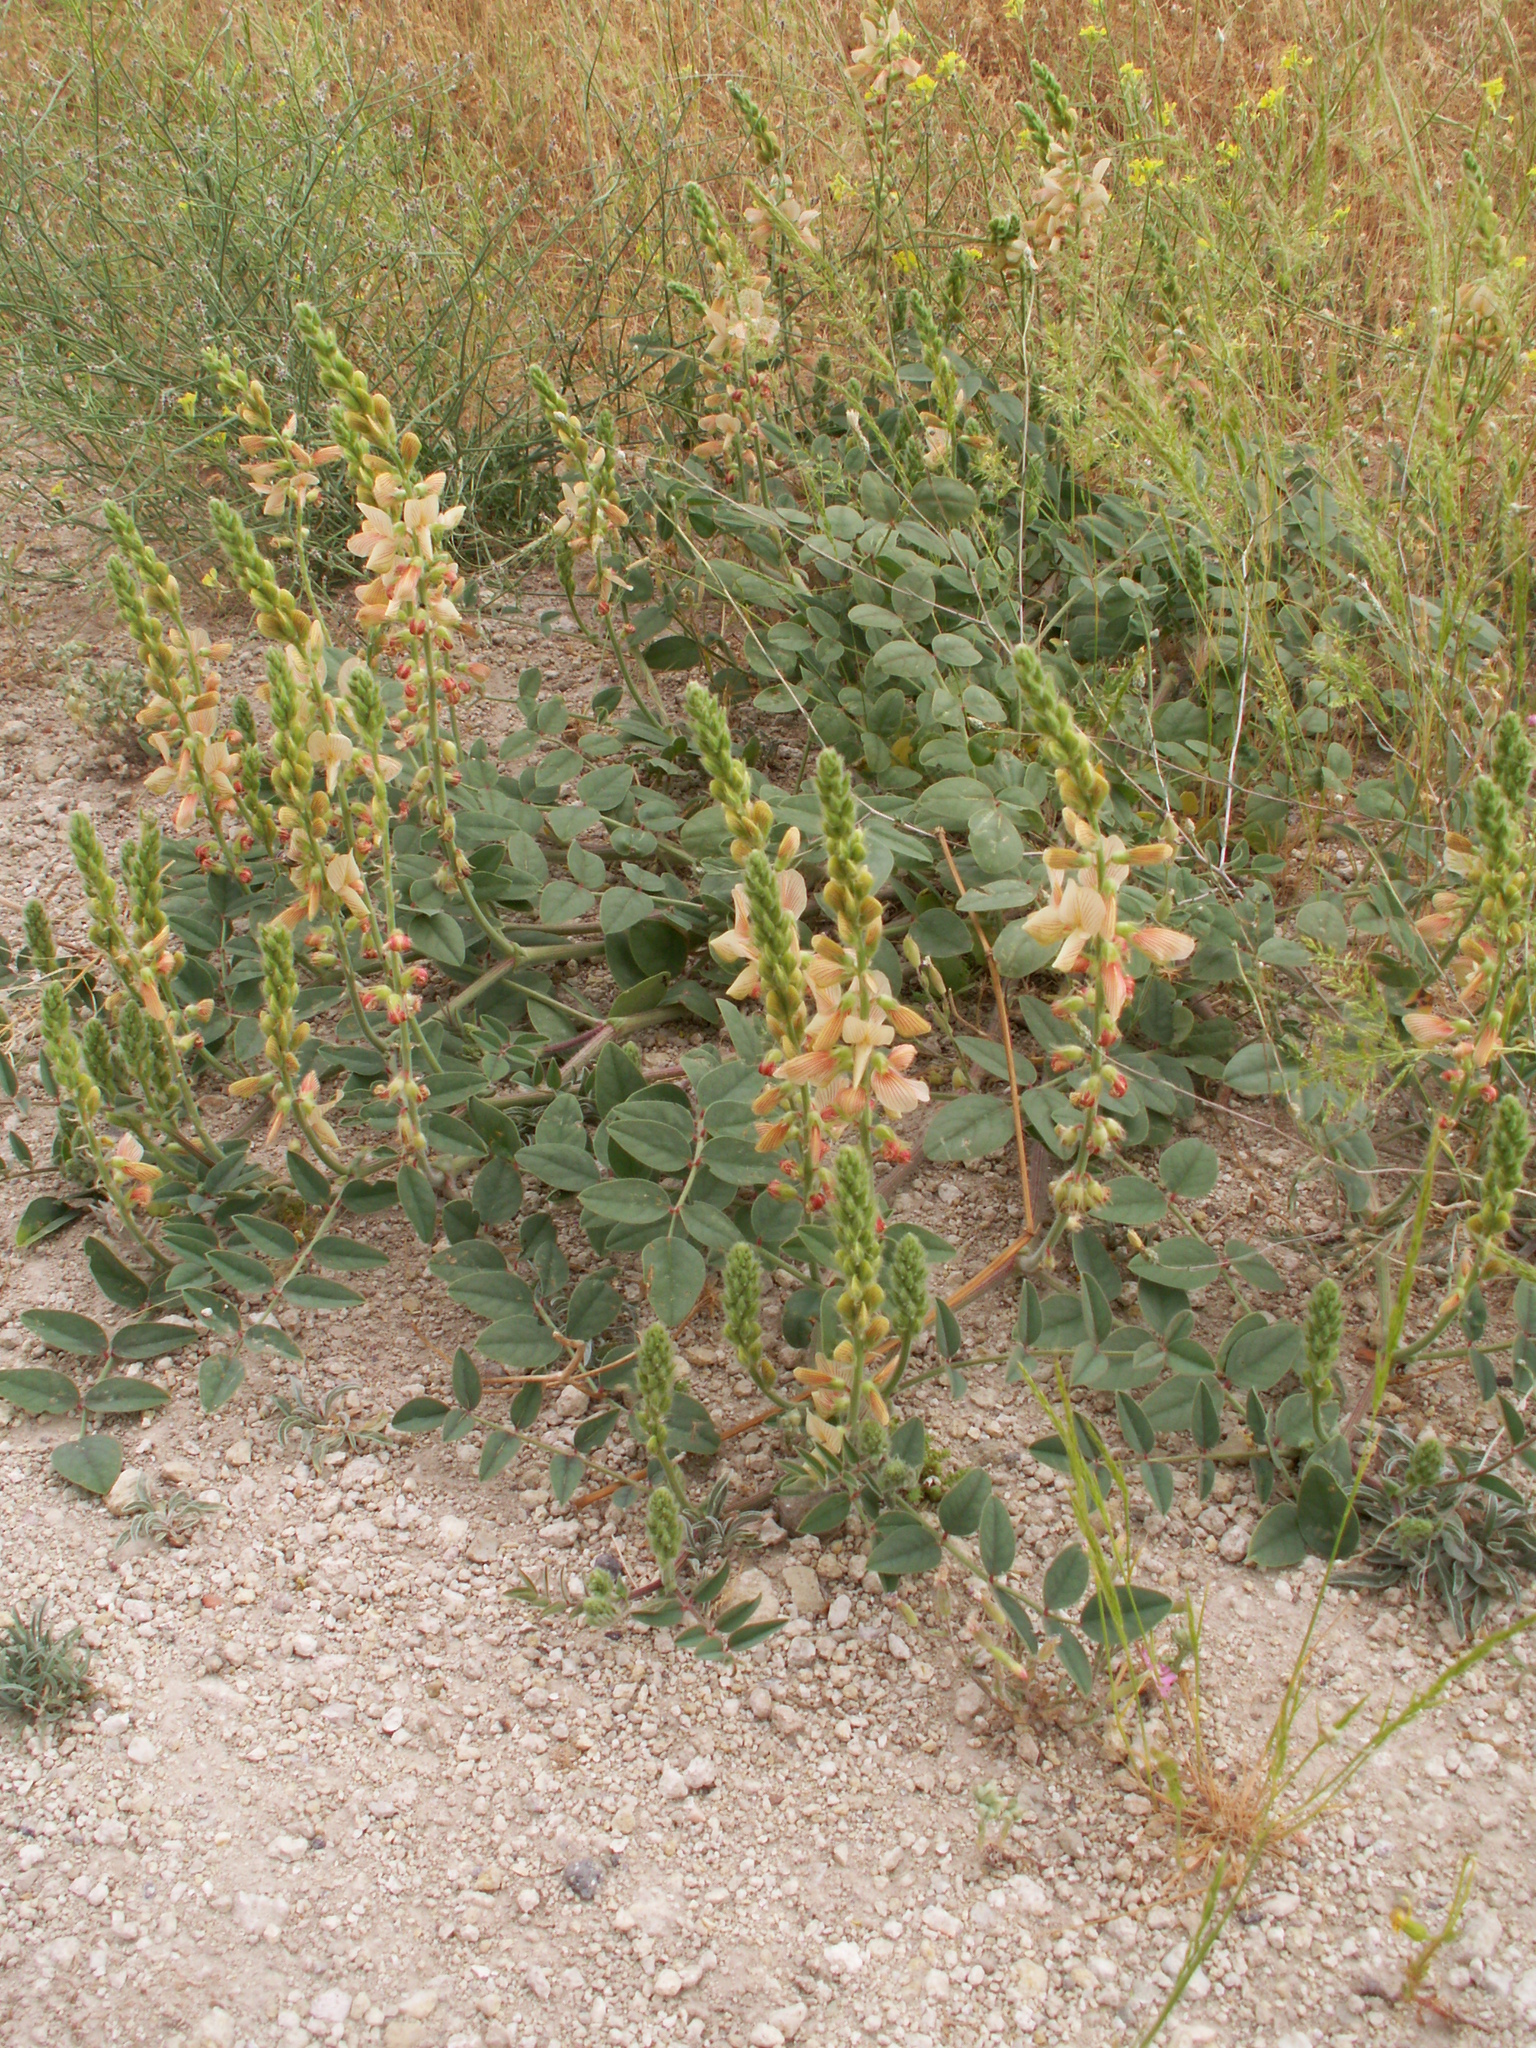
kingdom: Plantae
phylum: Tracheophyta
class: Magnoliopsida
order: Fabales
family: Fabaceae
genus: Onobrychis
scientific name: Onobrychis tournefortii
